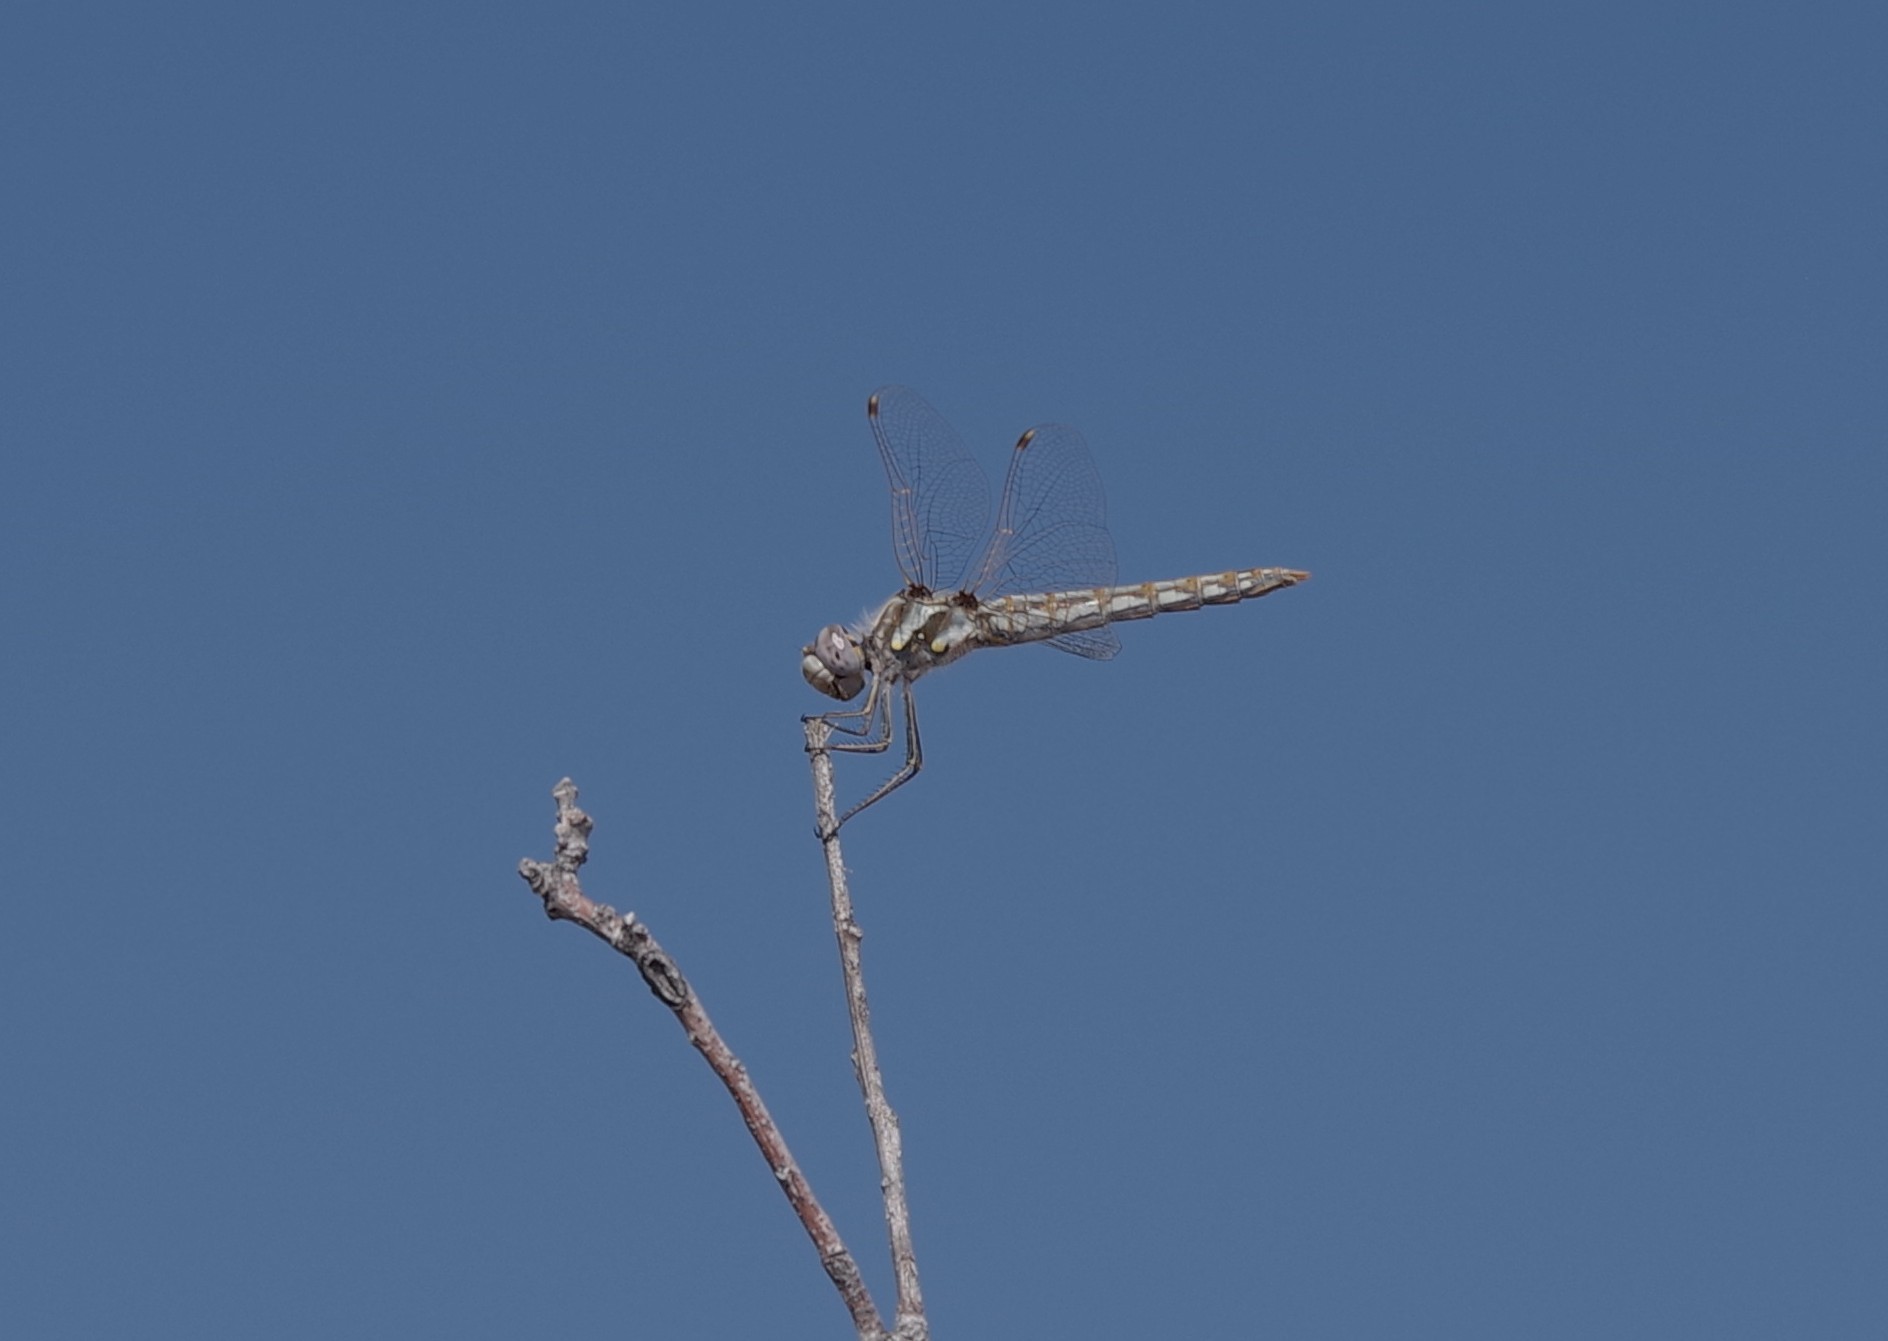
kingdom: Animalia
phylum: Arthropoda
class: Insecta
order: Odonata
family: Libellulidae
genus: Sympetrum
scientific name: Sympetrum corruptum
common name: Variegated meadowhawk
